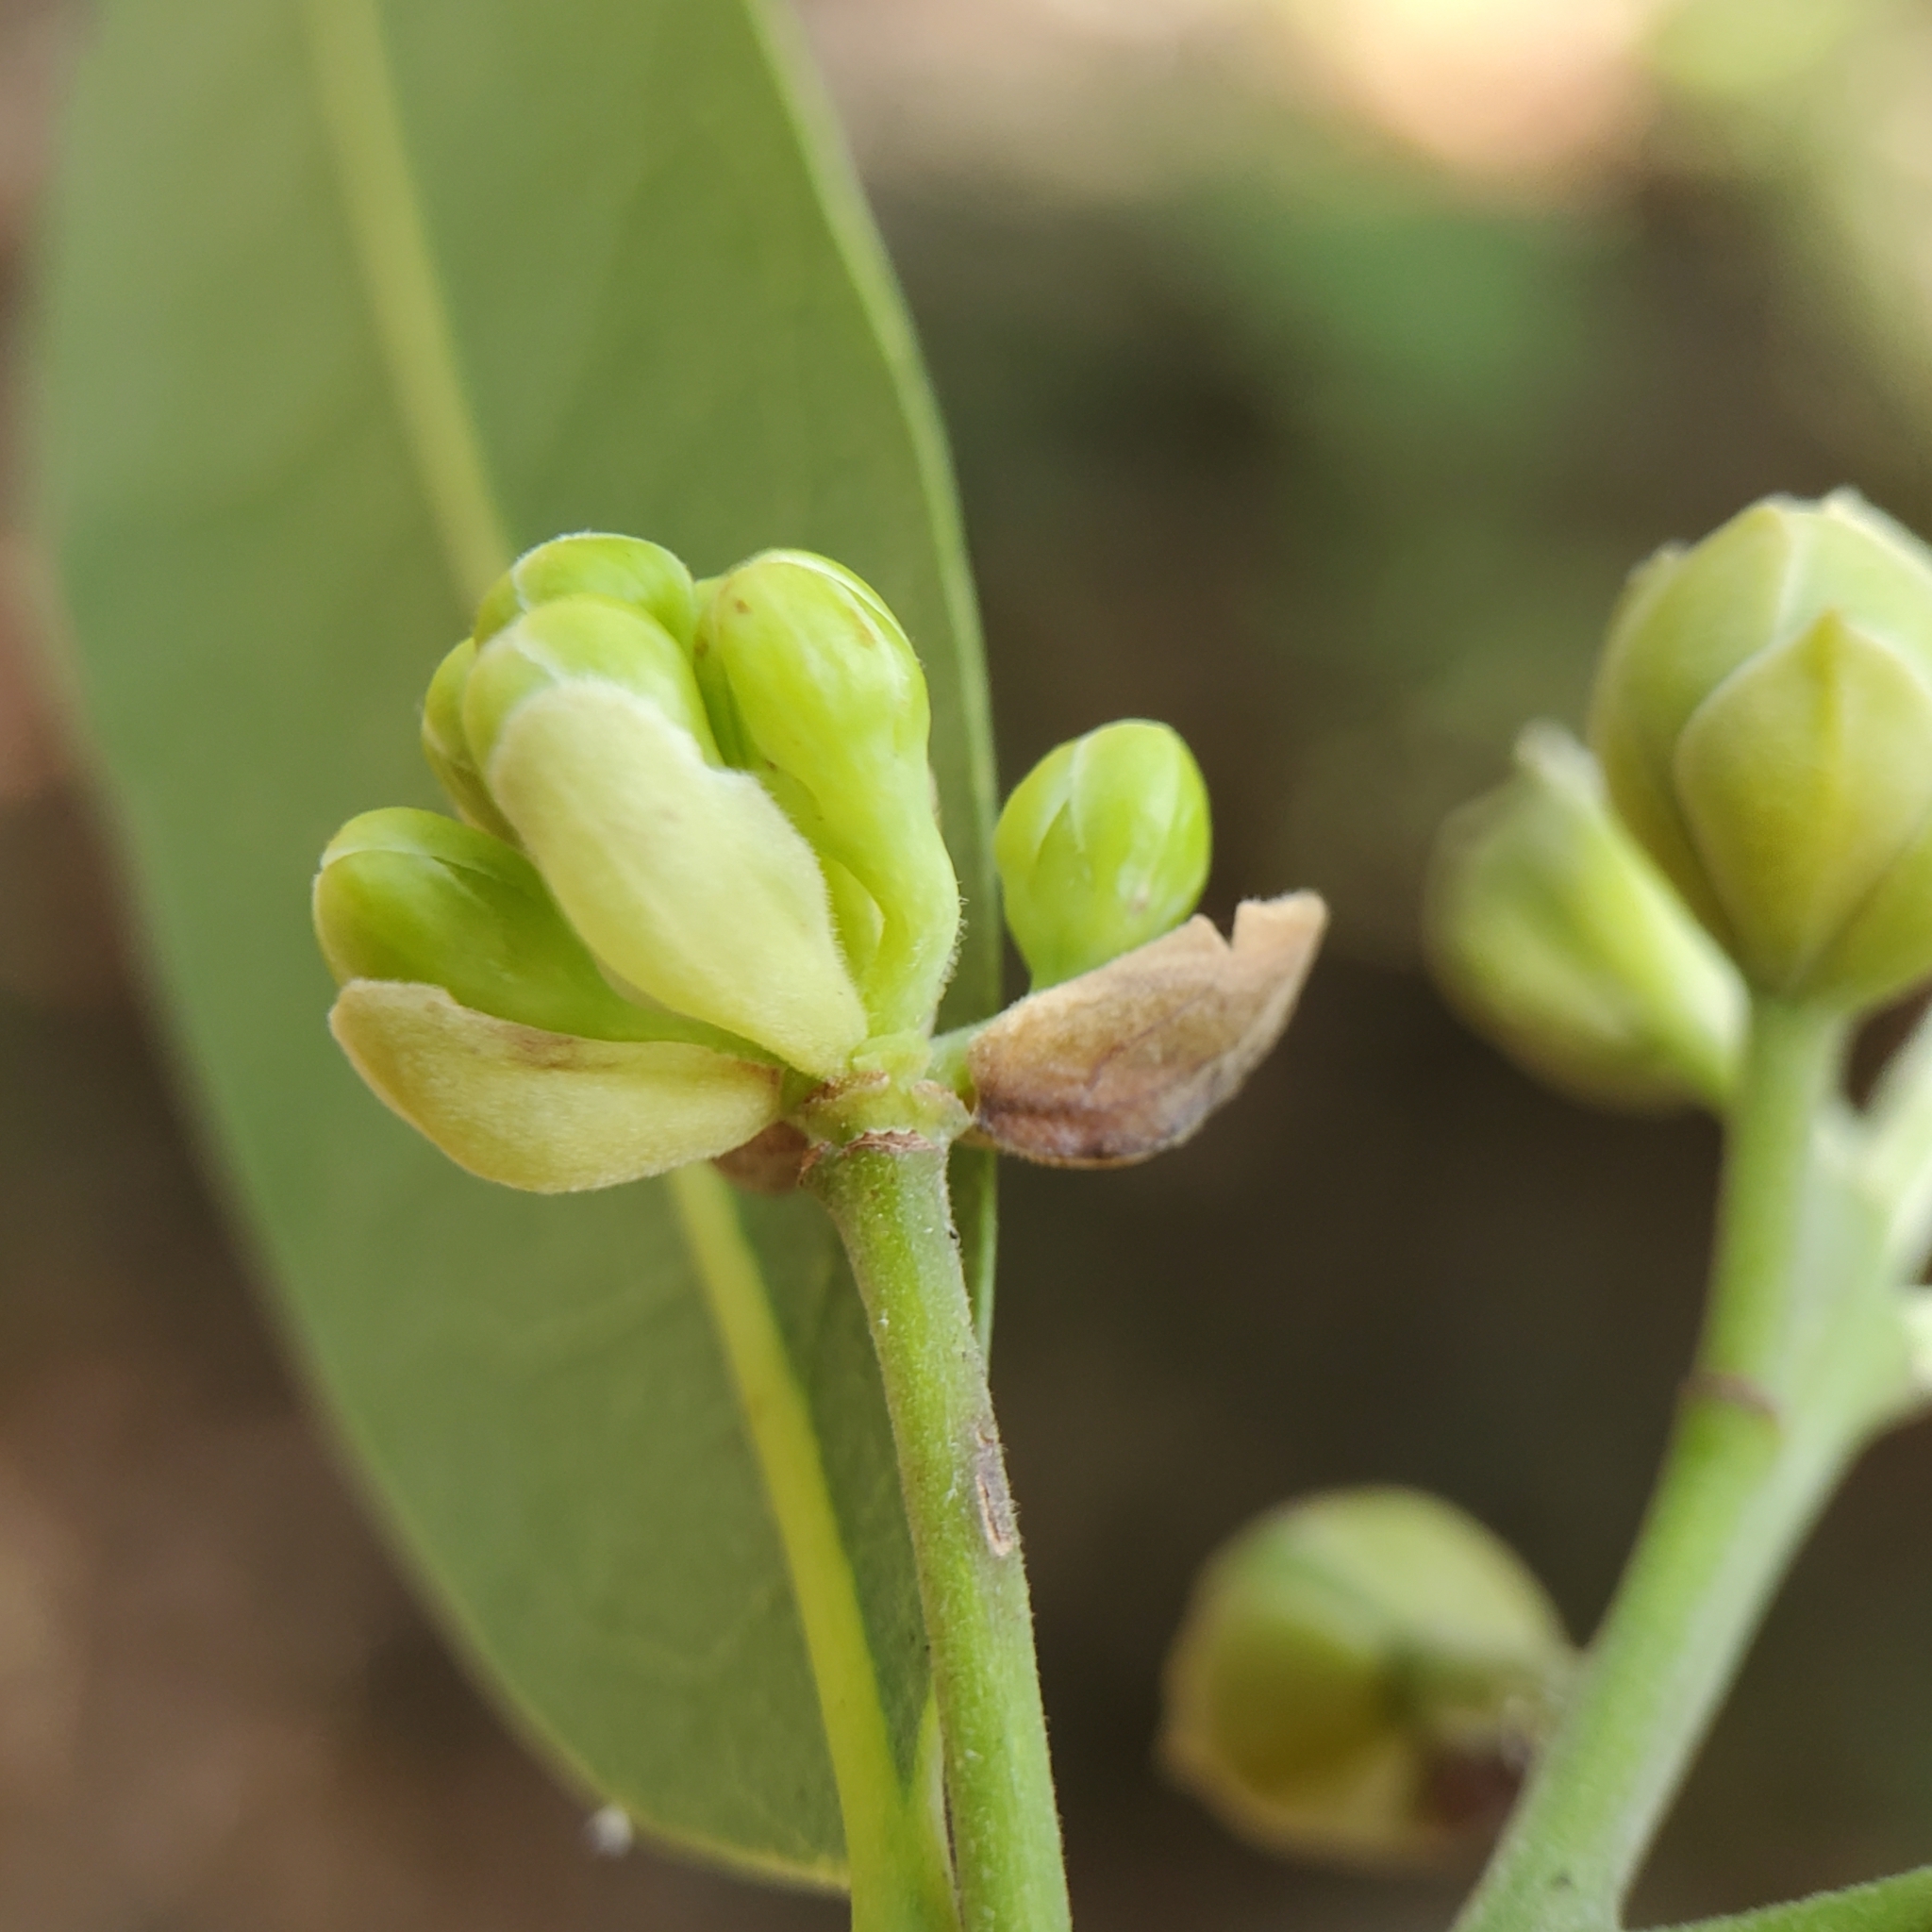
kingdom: Plantae
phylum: Tracheophyta
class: Magnoliopsida
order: Laurales
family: Lauraceae
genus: Umbellularia
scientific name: Umbellularia californica
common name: California bay
